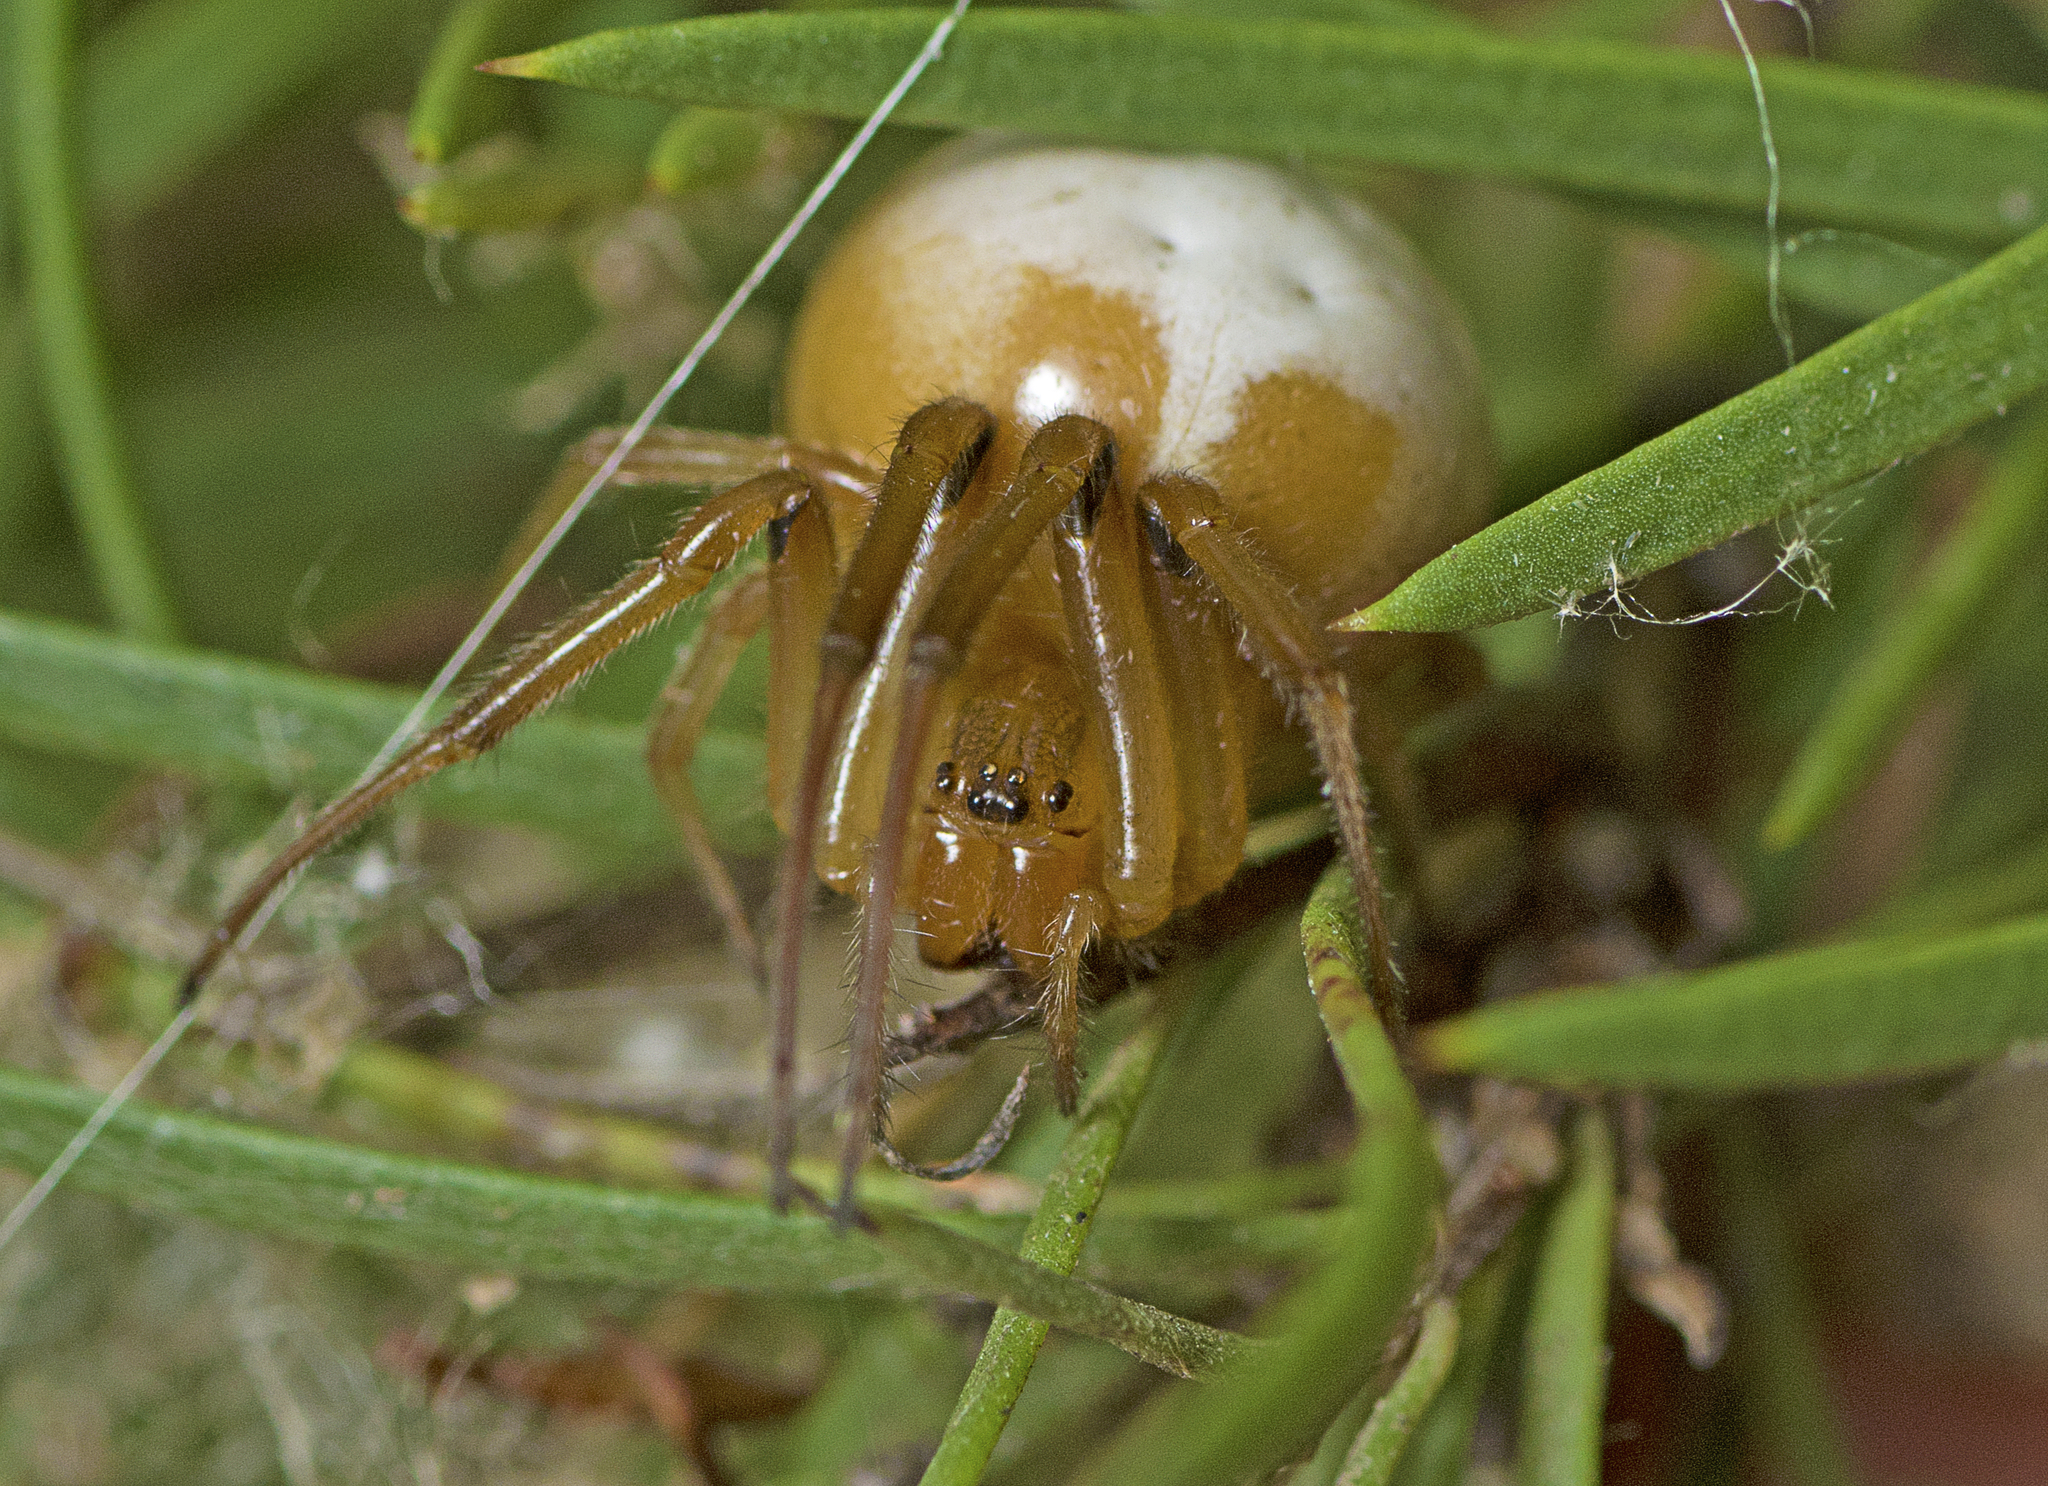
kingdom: Animalia
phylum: Arthropoda
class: Arachnida
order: Araneae
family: Araneidae
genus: Deliochus
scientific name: Deliochus idoneus
